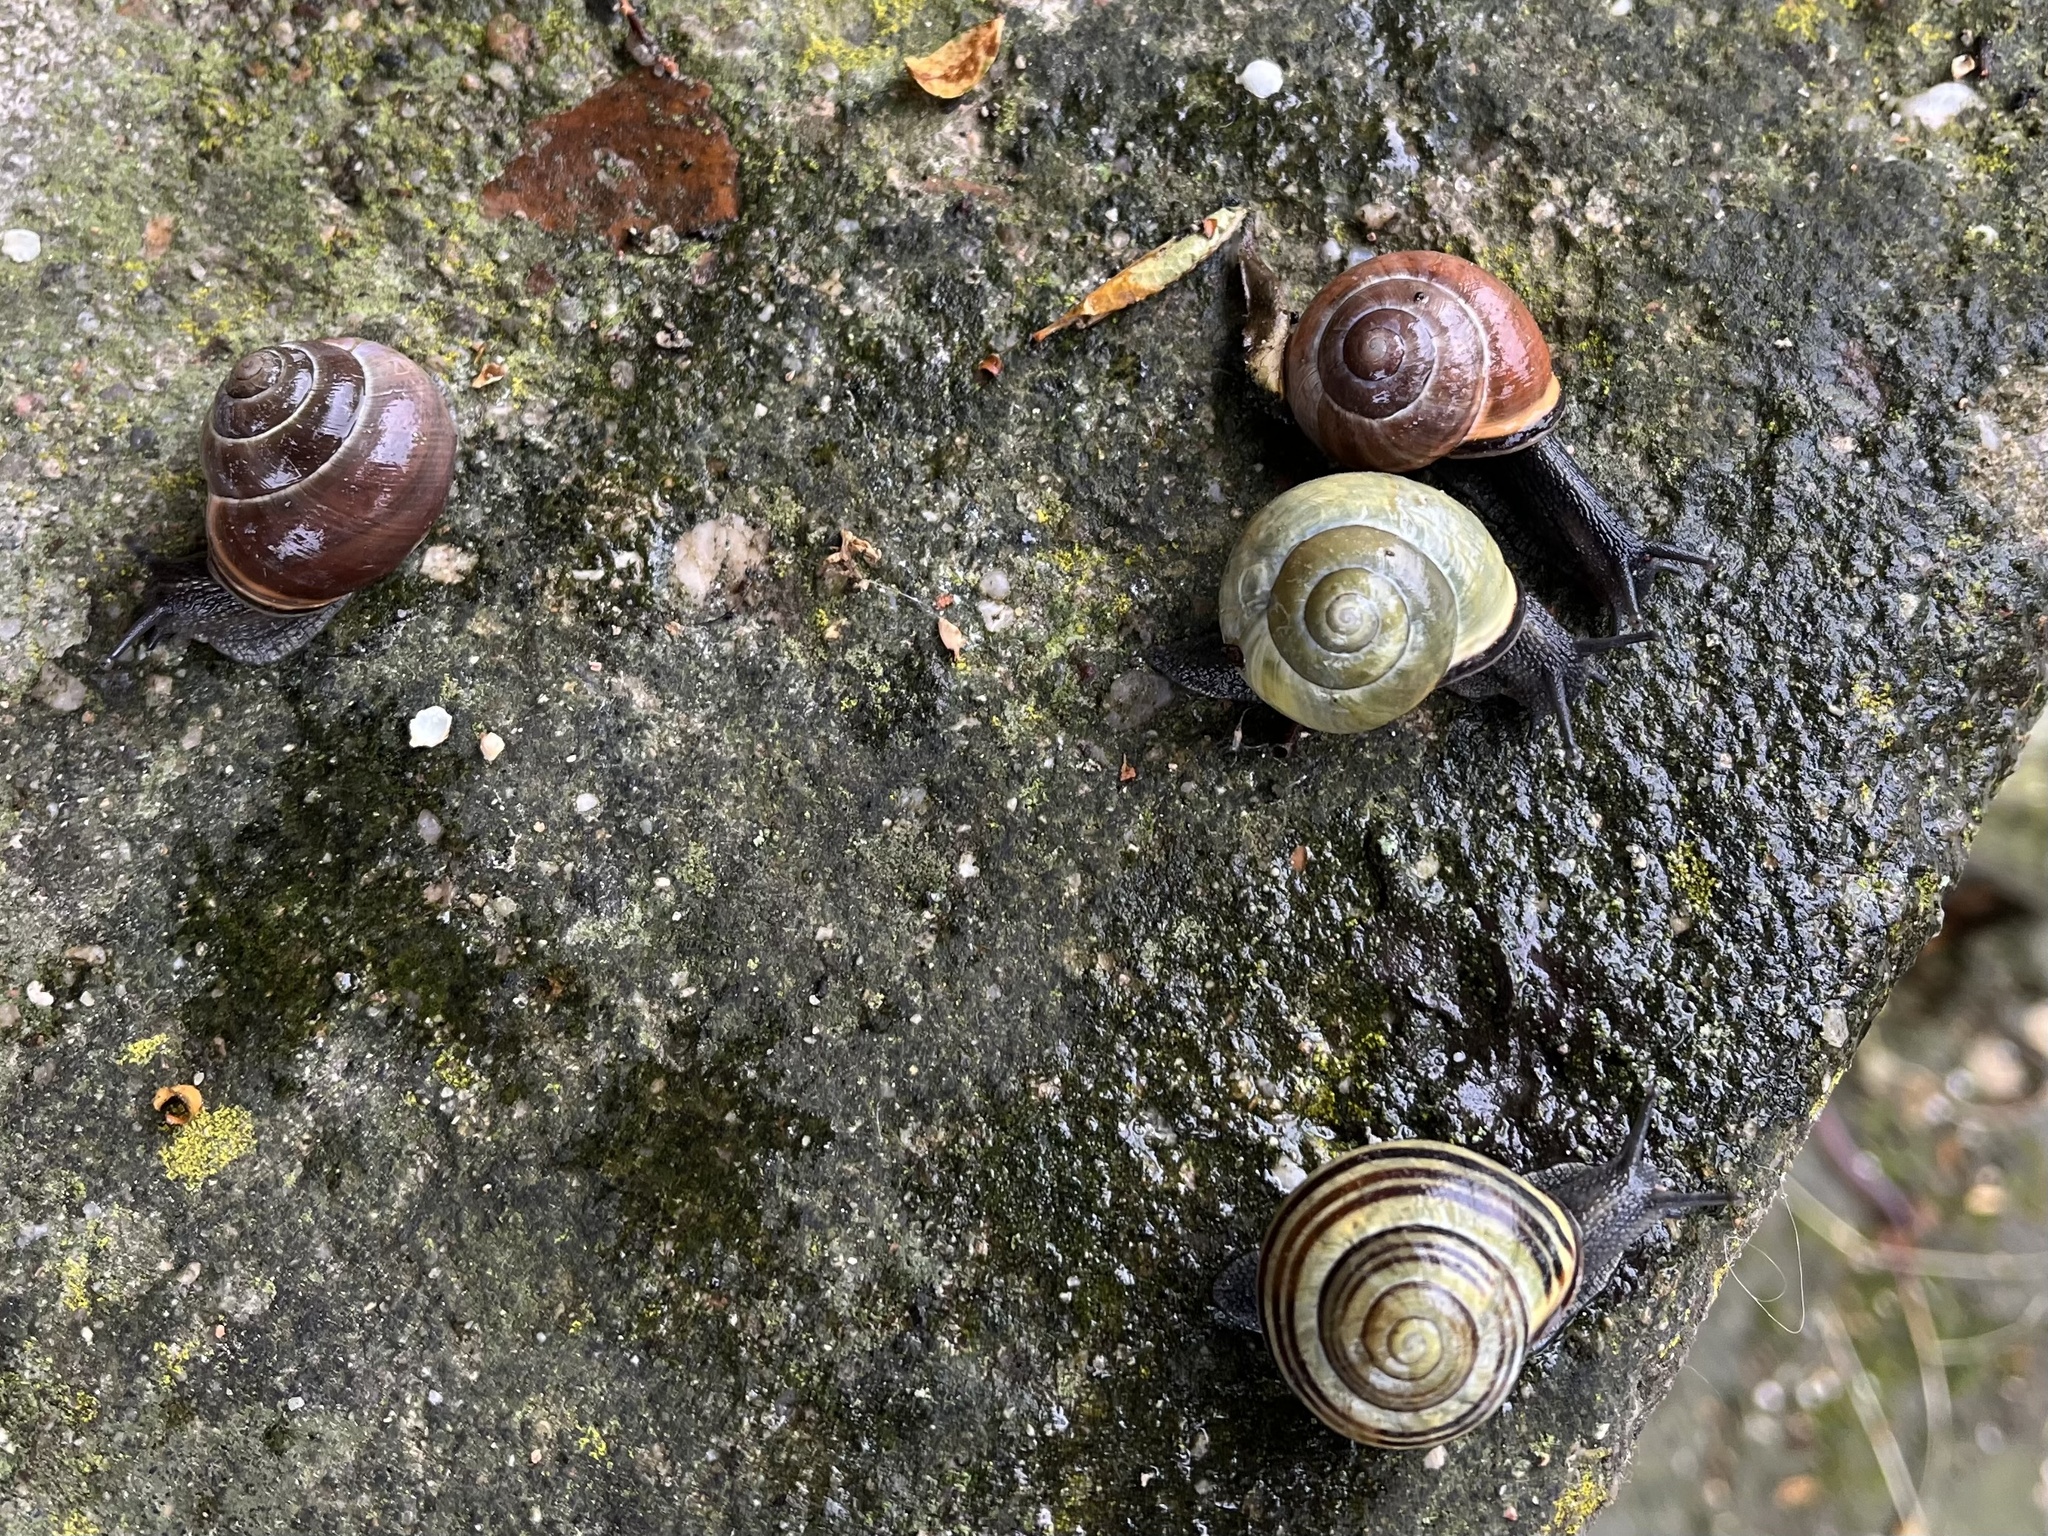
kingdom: Animalia
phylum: Mollusca
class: Gastropoda
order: Stylommatophora
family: Helicidae
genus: Cepaea
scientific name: Cepaea nemoralis
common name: Grovesnail
